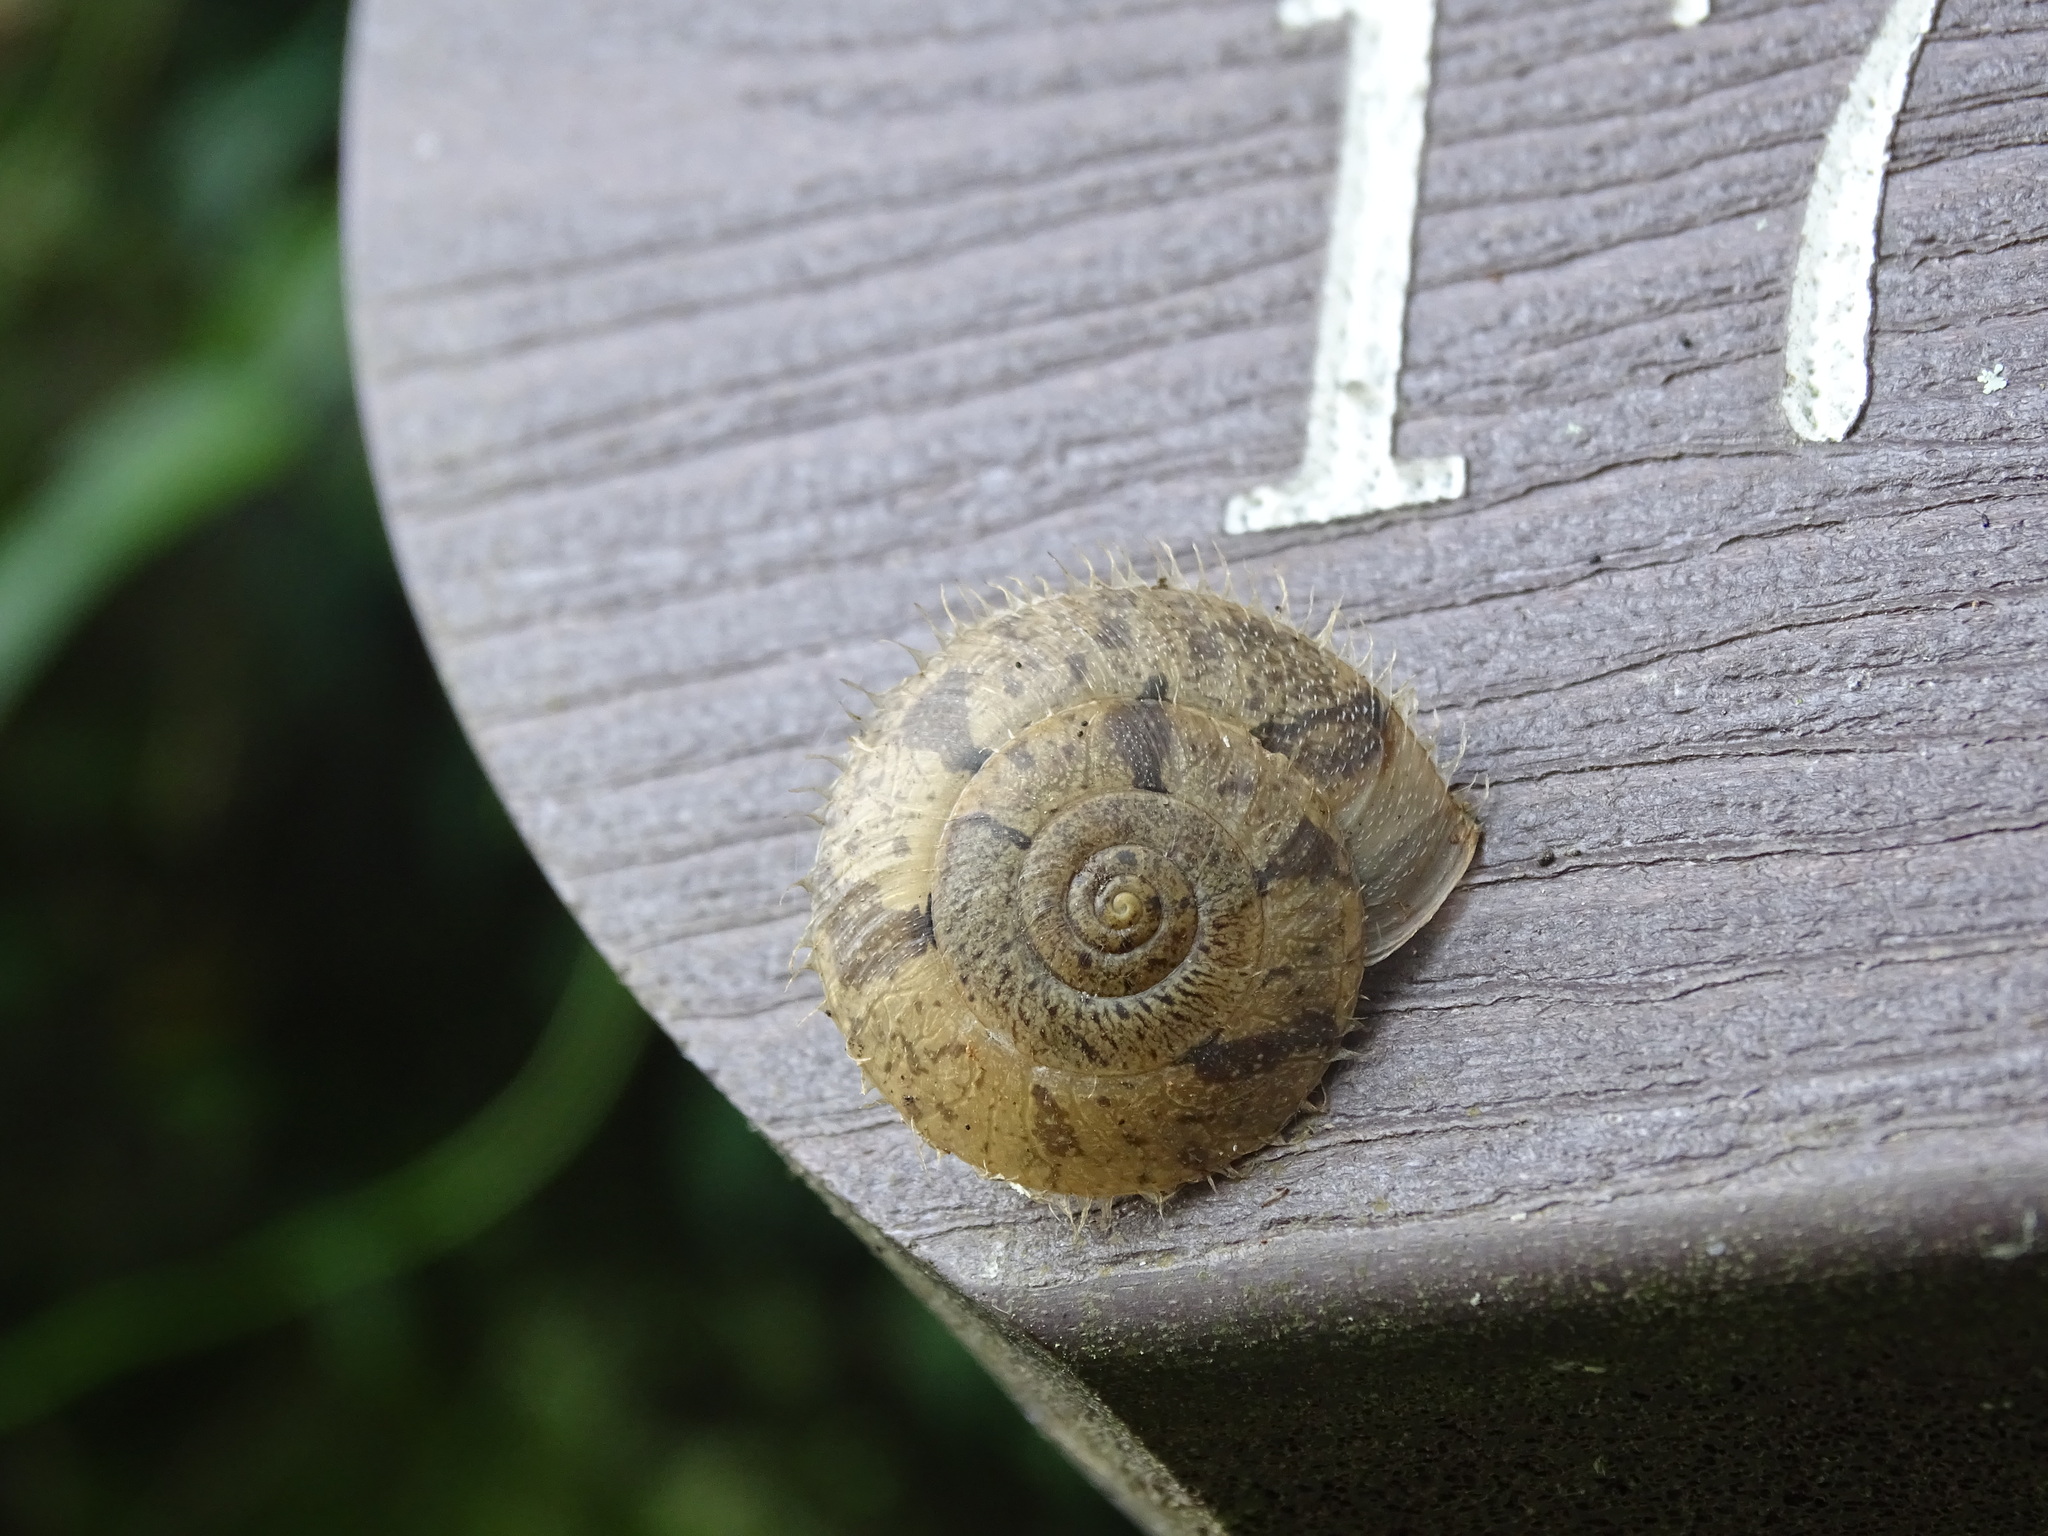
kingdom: Animalia
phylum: Mollusca
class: Gastropoda
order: Stylommatophora
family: Camaenidae
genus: Aegista
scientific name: Aegista impexa
